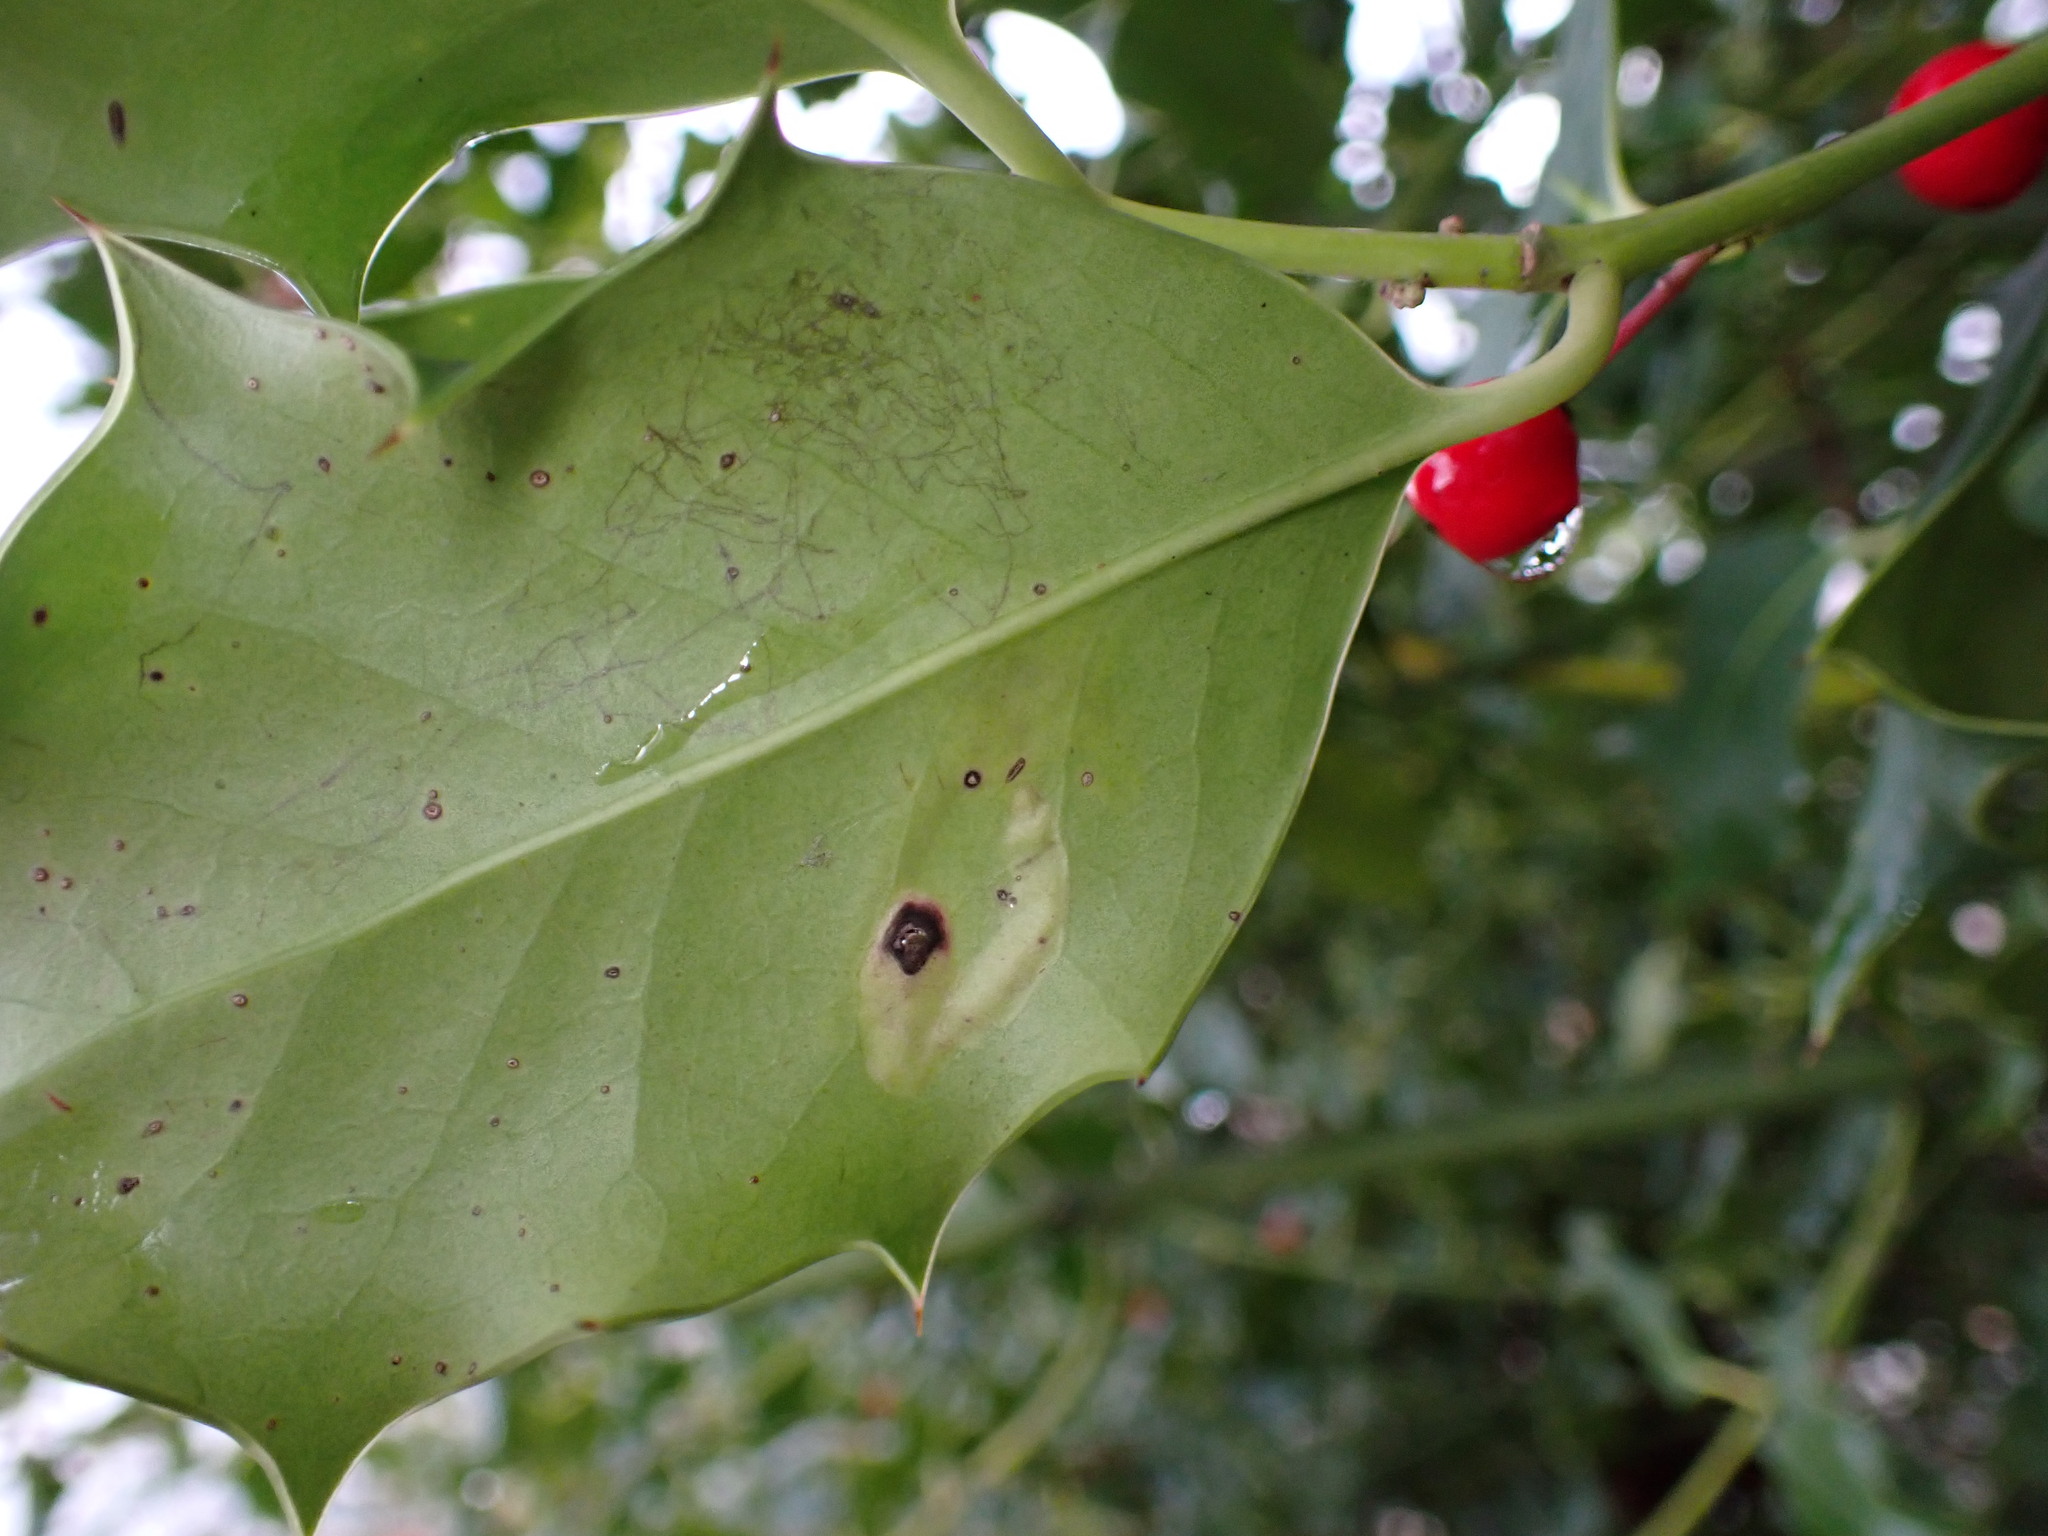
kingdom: Animalia
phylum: Arthropoda
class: Insecta
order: Diptera
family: Agromyzidae
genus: Phytomyza
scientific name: Phytomyza ilicis
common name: Holly leafminer
